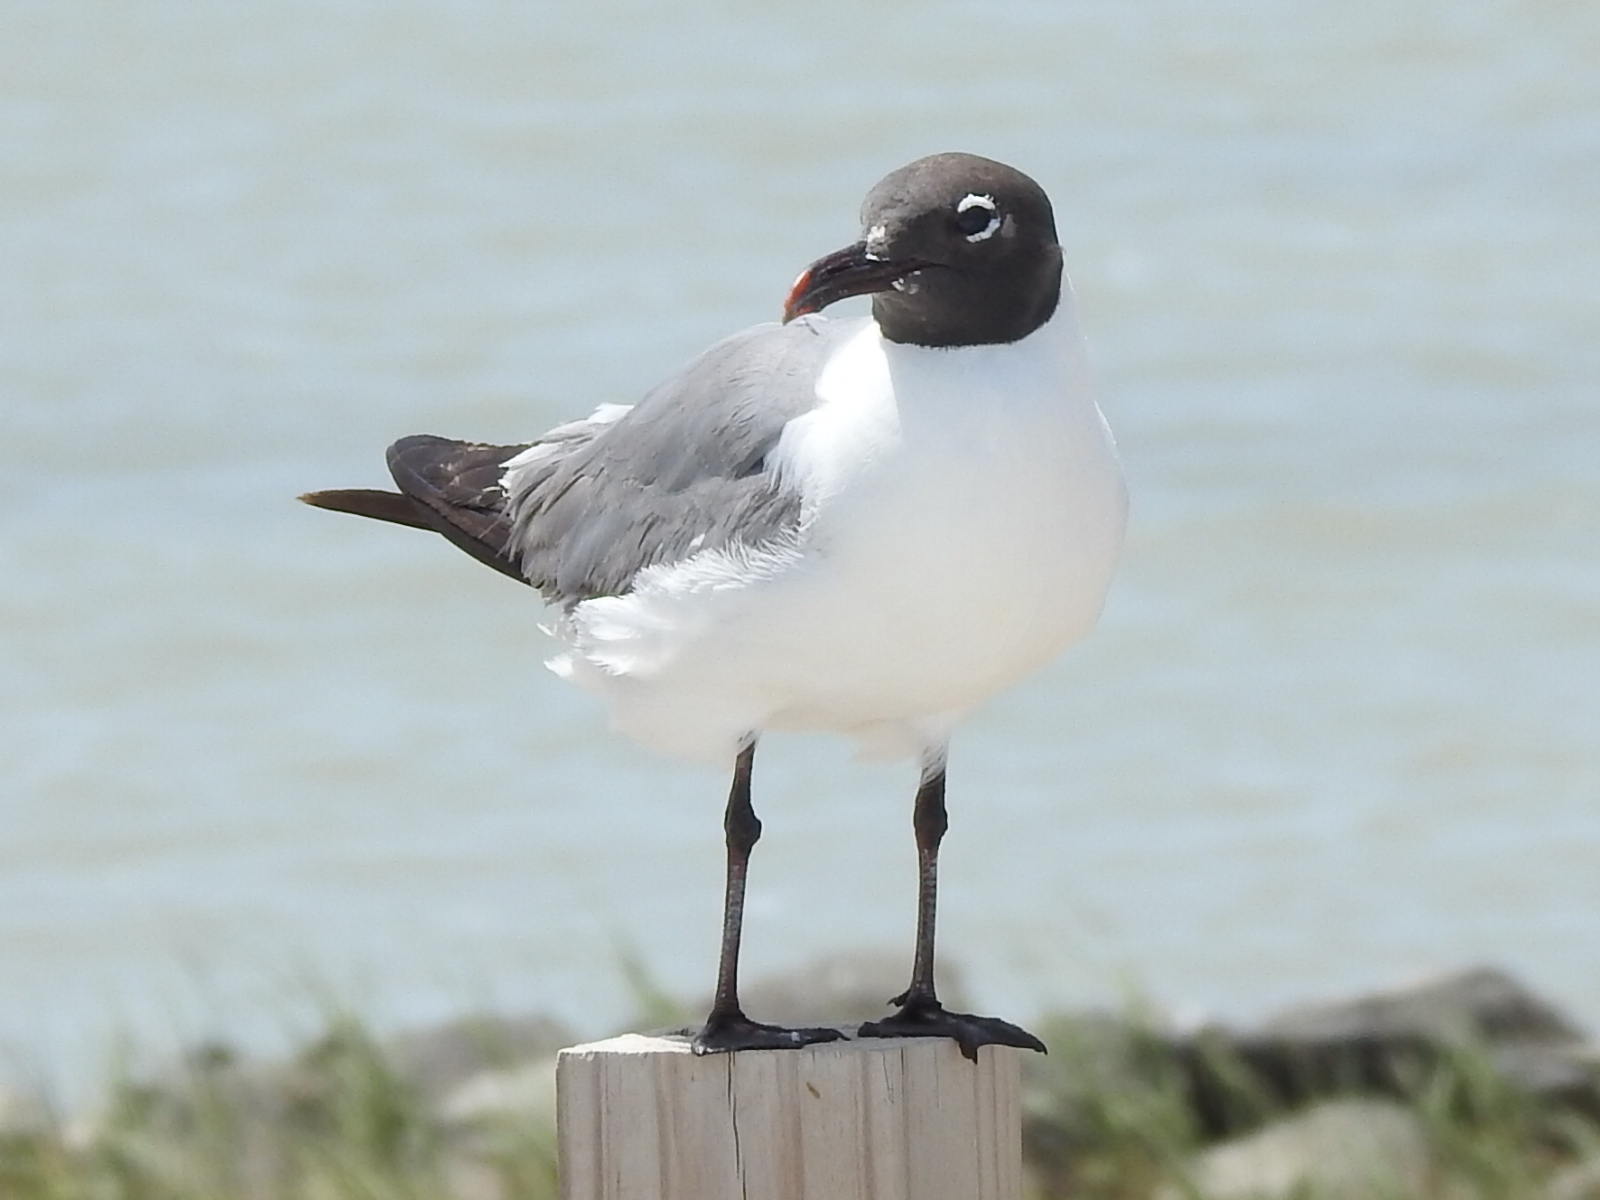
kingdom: Animalia
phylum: Chordata
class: Aves
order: Charadriiformes
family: Laridae
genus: Leucophaeus
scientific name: Leucophaeus atricilla
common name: Laughing gull
